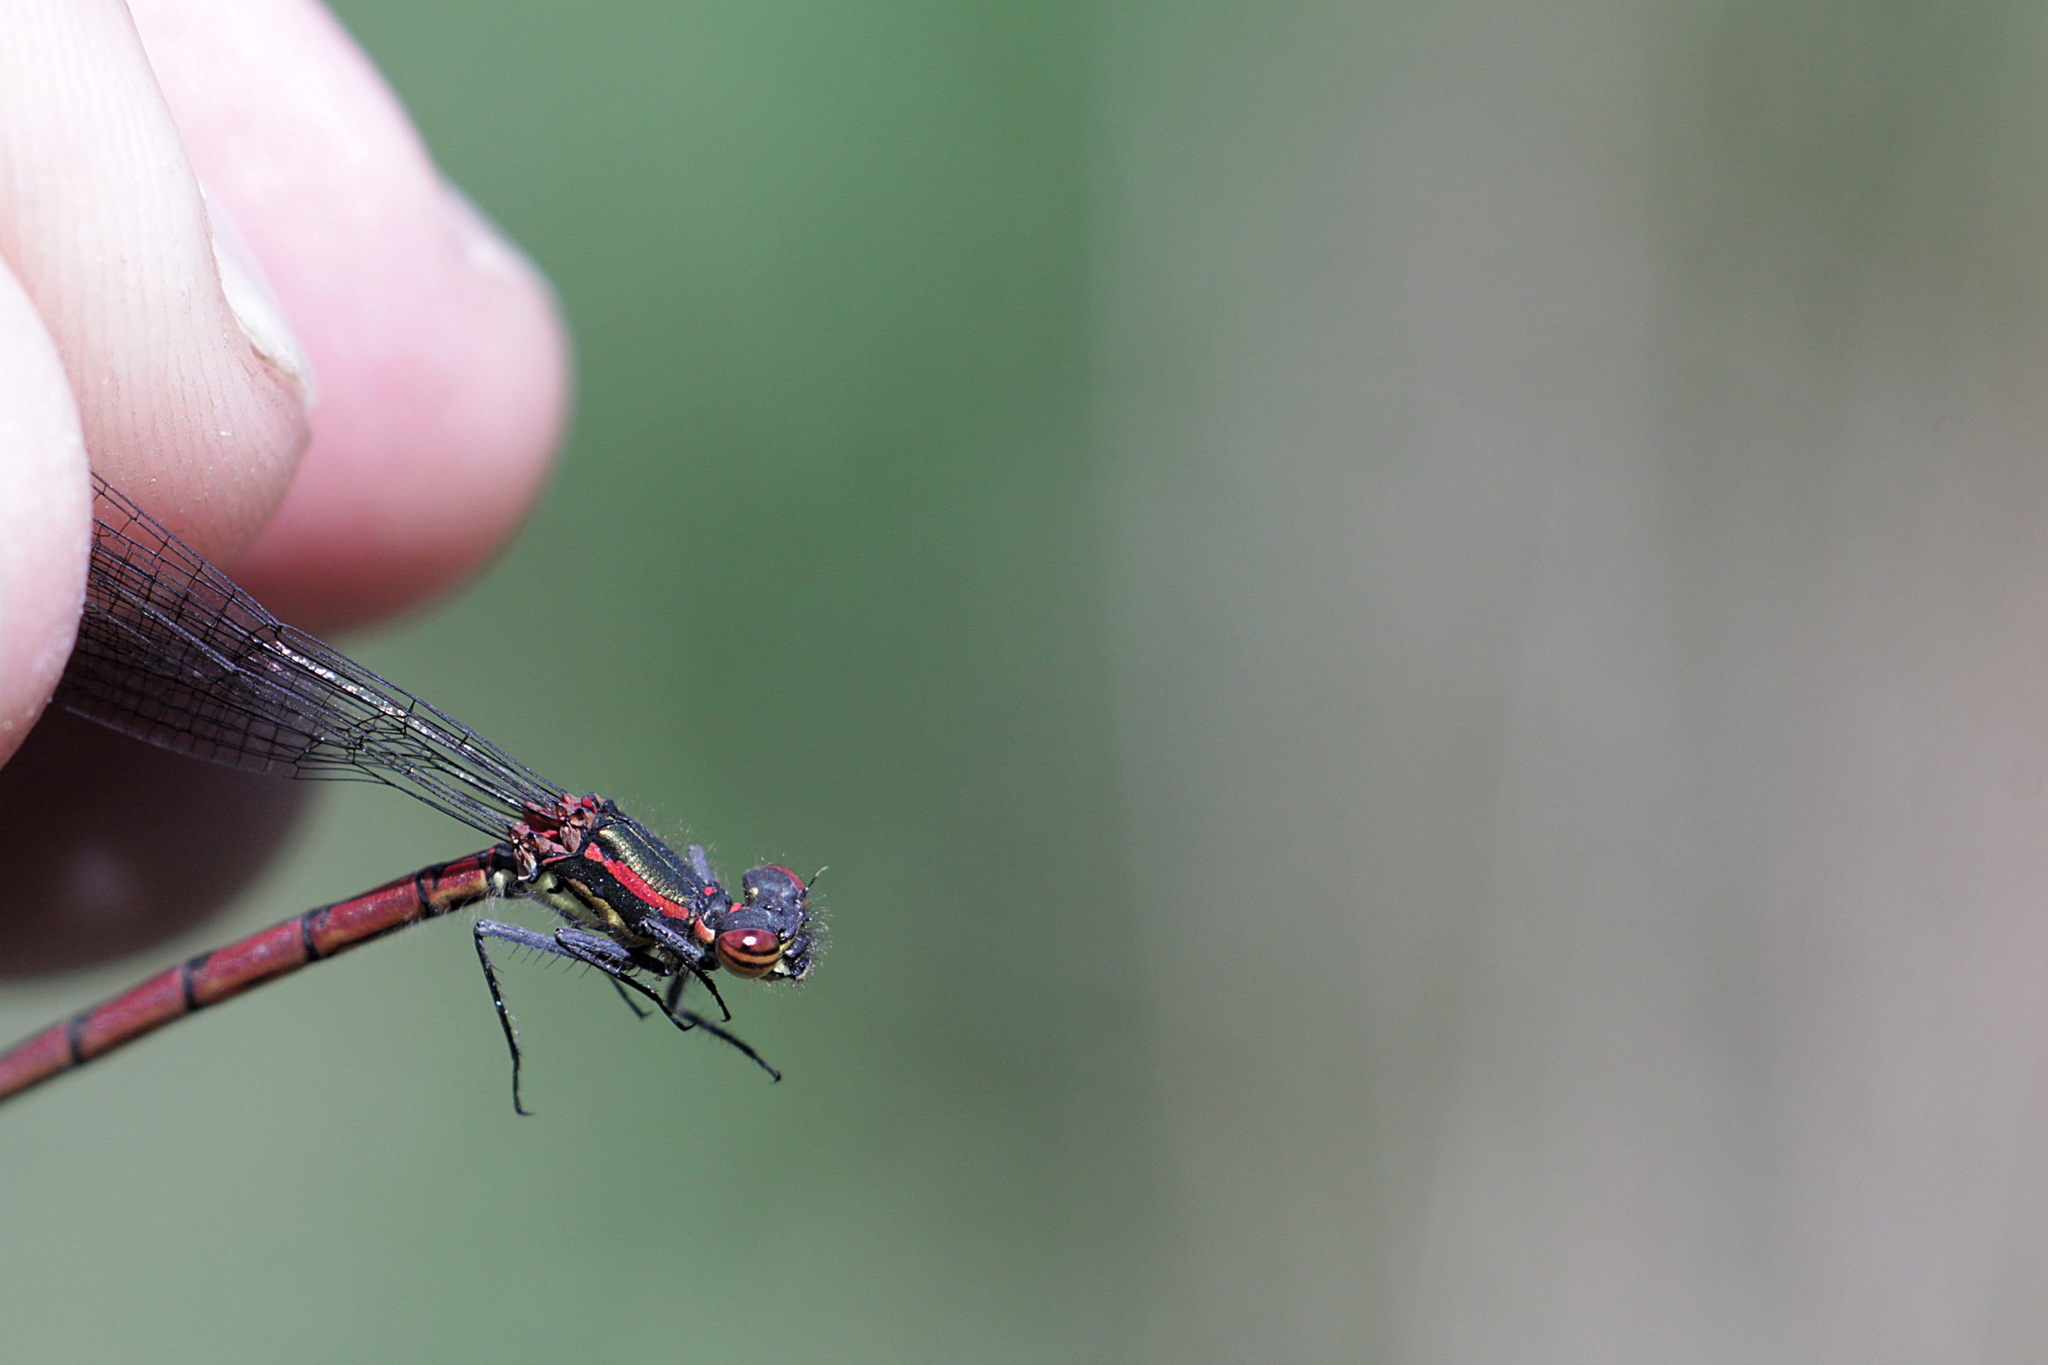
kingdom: Animalia
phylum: Arthropoda
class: Insecta
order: Odonata
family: Coenagrionidae
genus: Pyrrhosoma
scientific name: Pyrrhosoma nymphula
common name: Large red damsel
